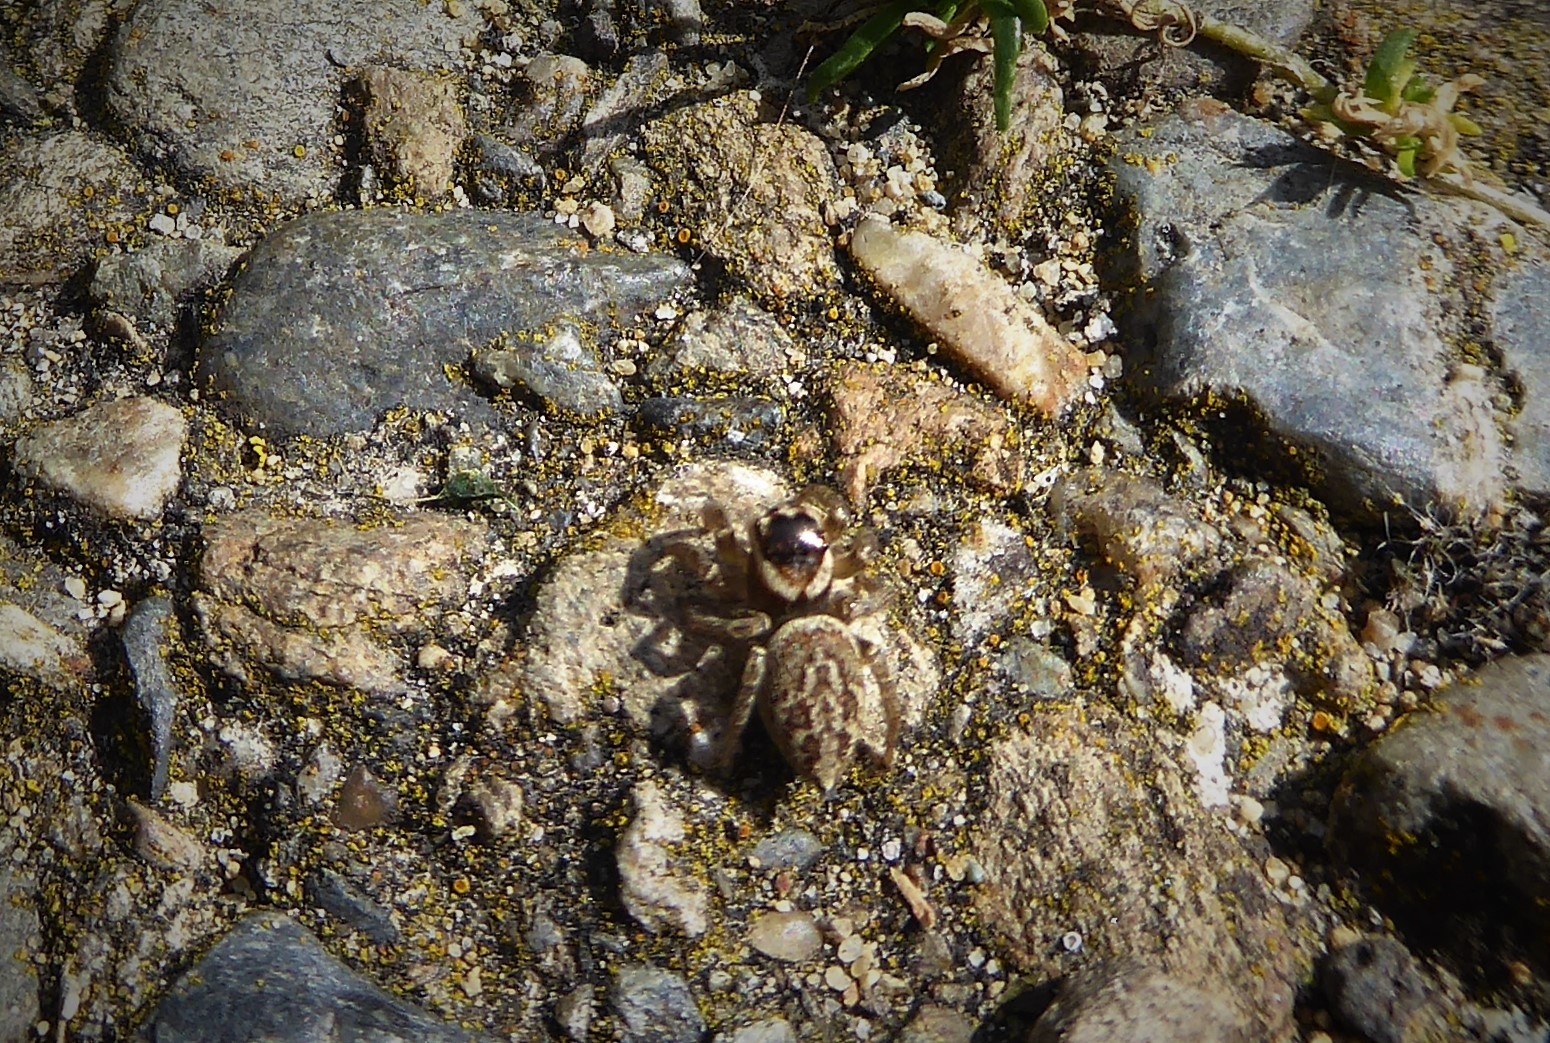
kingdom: Animalia
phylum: Arthropoda
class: Arachnida
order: Araneae
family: Salticidae
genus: Maratus
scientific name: Maratus griseus
